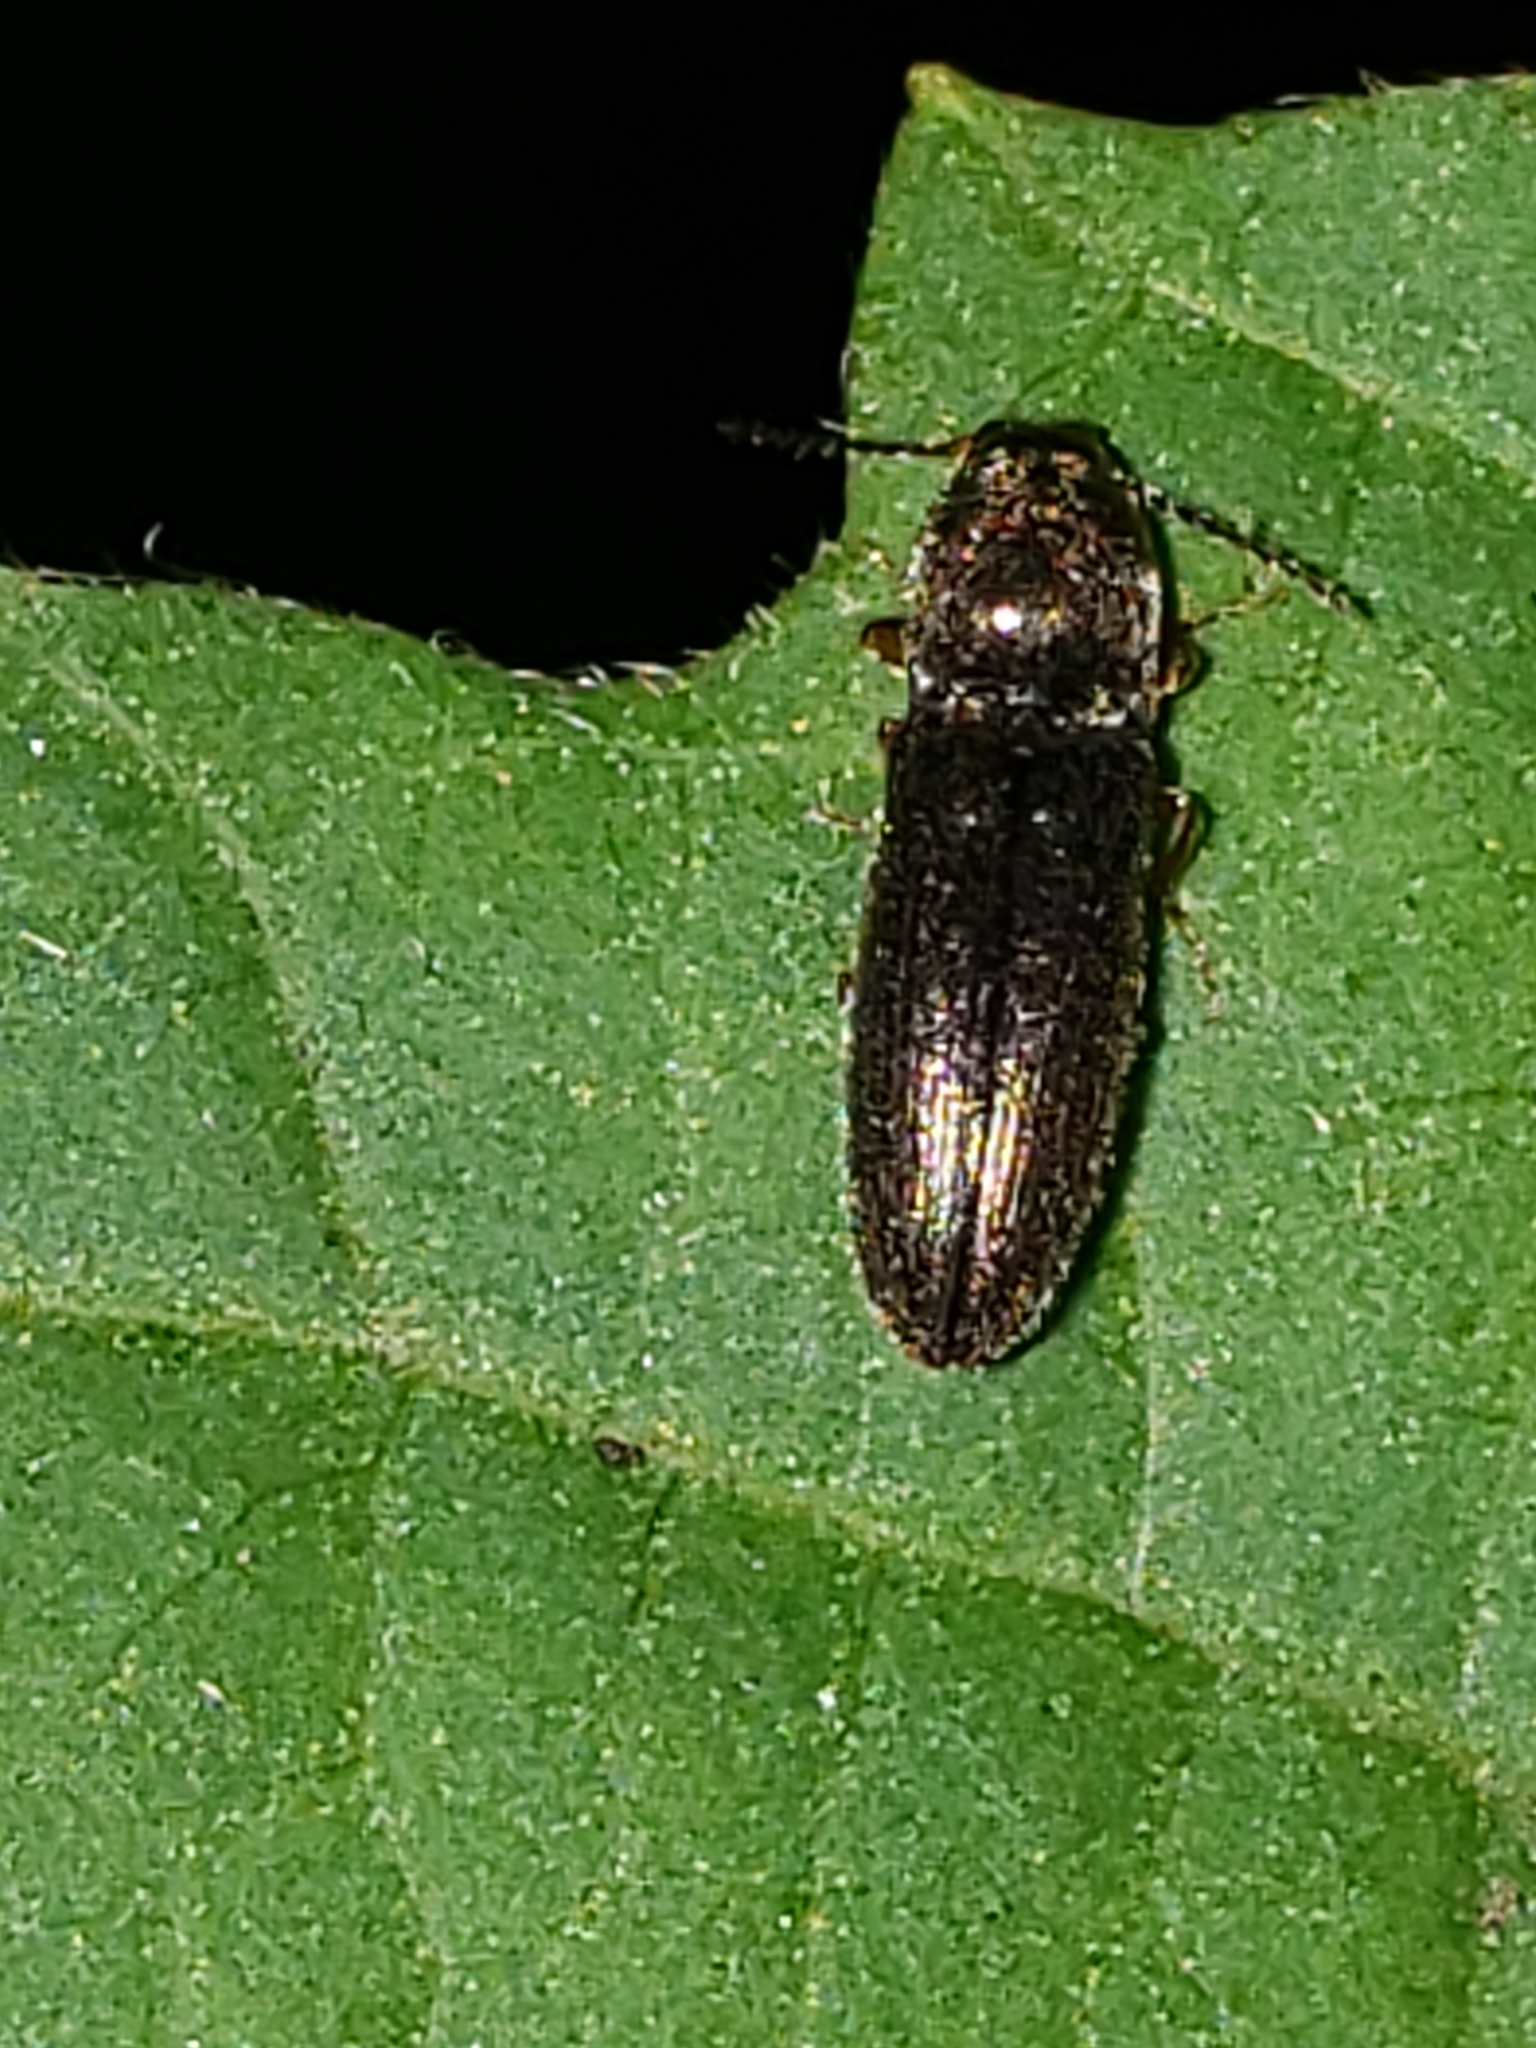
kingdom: Animalia
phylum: Arthropoda
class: Insecta
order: Coleoptera
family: Elateridae
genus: Limonius
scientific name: Limonius quercinus
